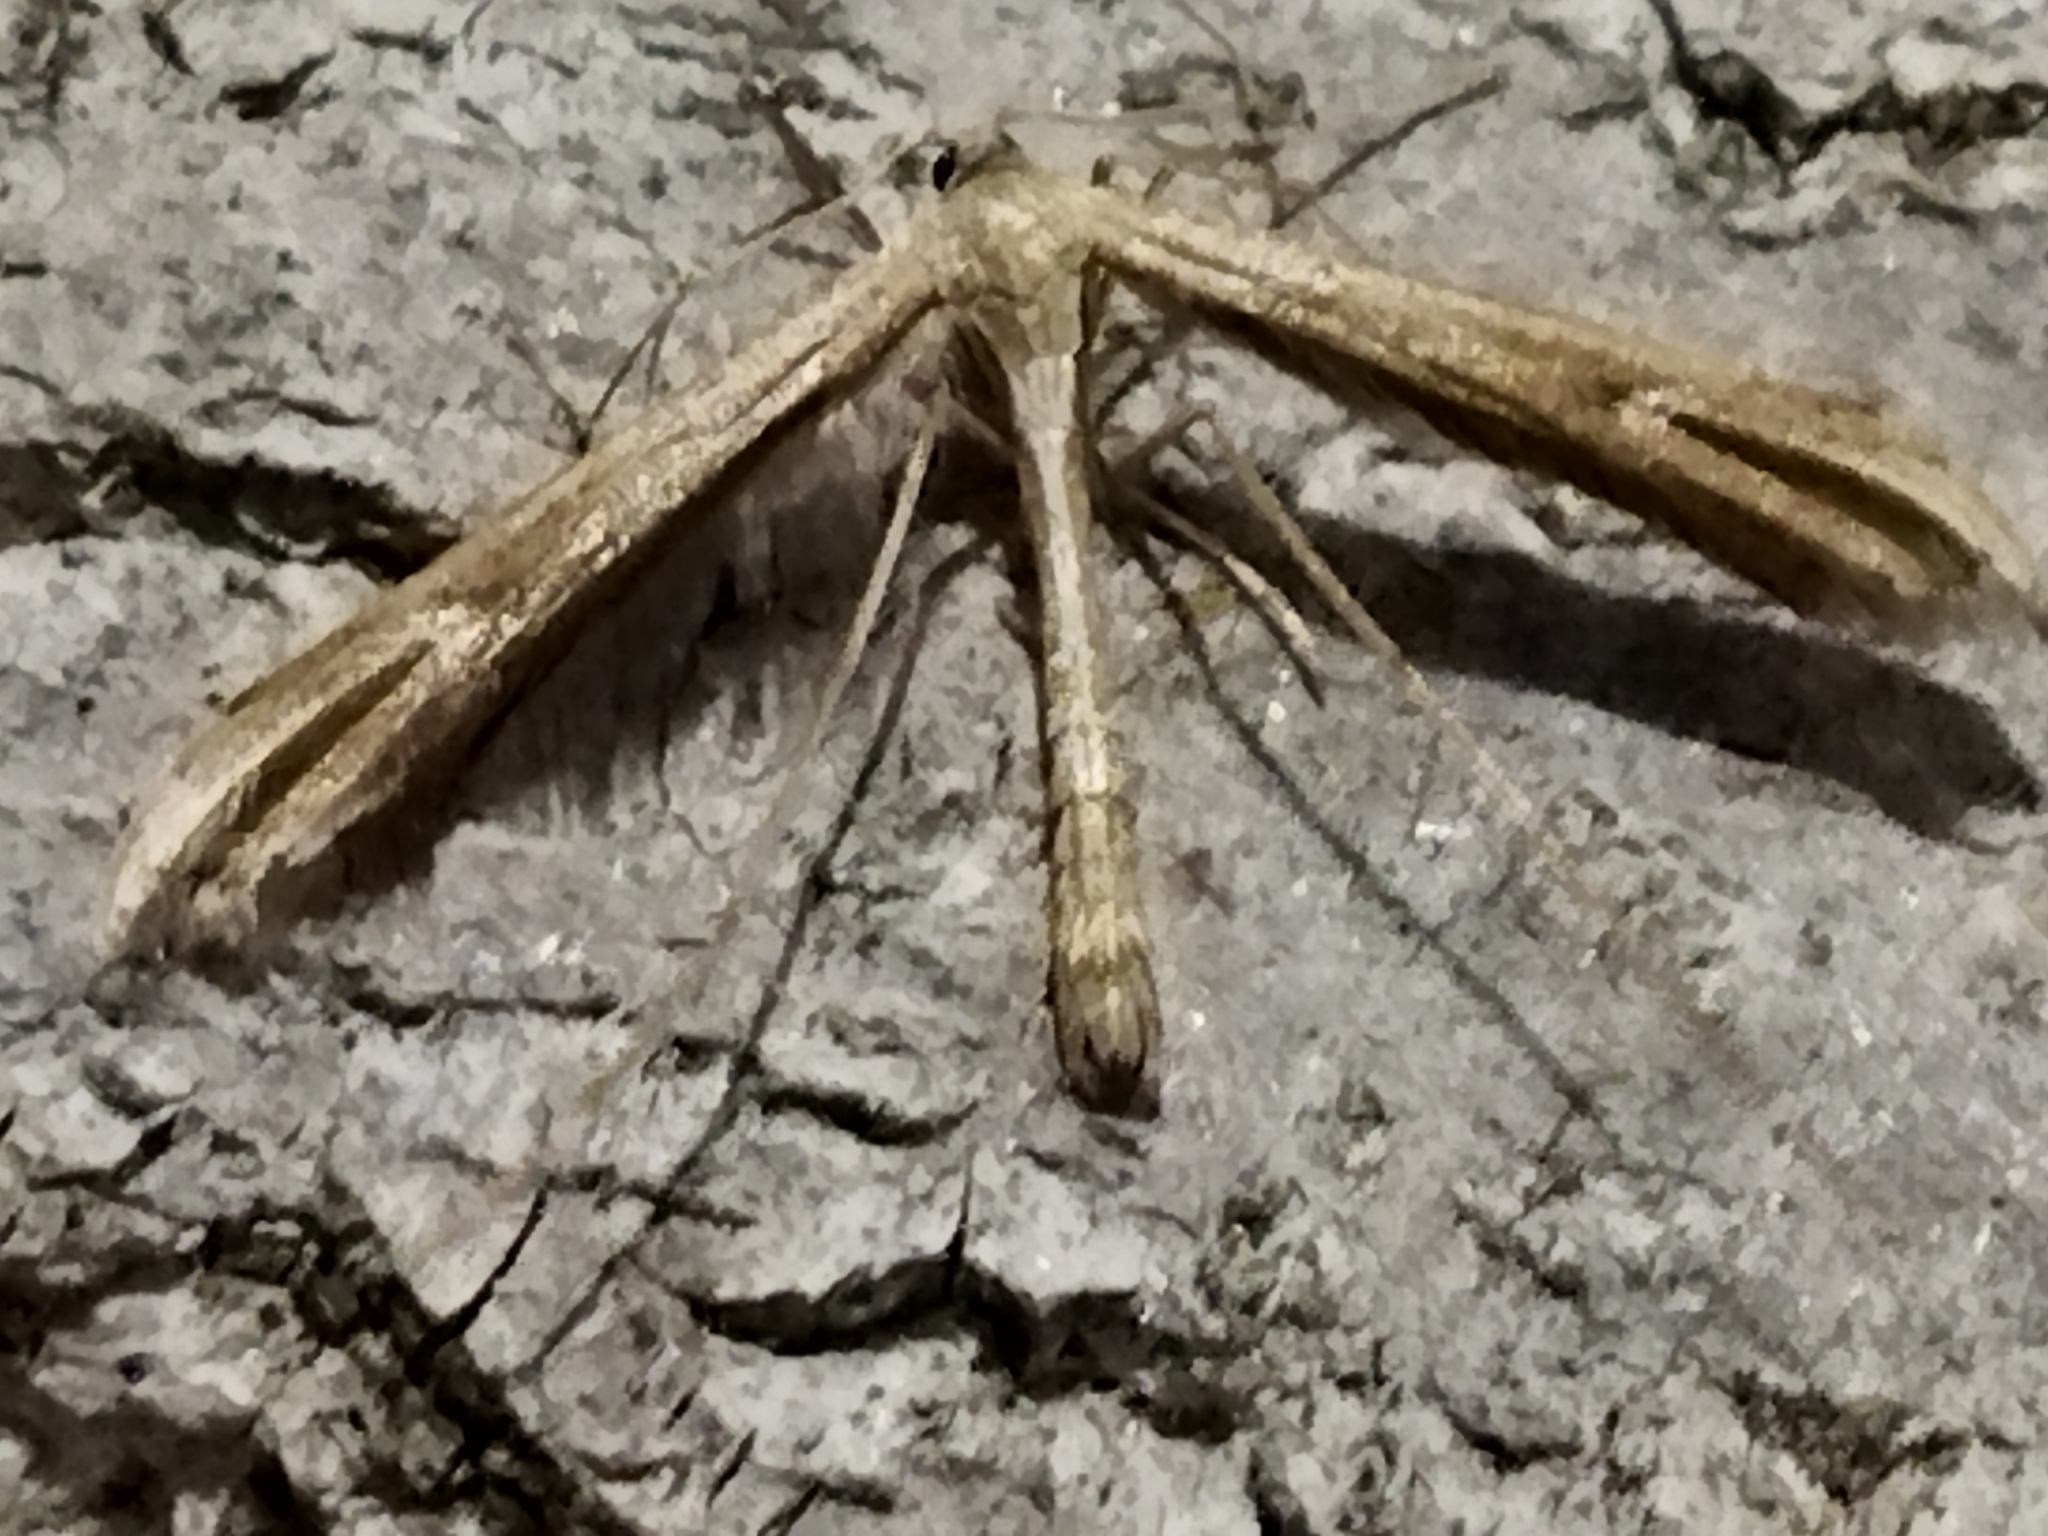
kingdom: Animalia
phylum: Arthropoda
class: Insecta
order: Lepidoptera
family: Pterophoridae
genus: Emmelina
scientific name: Emmelina monodactyla
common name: Common plume
